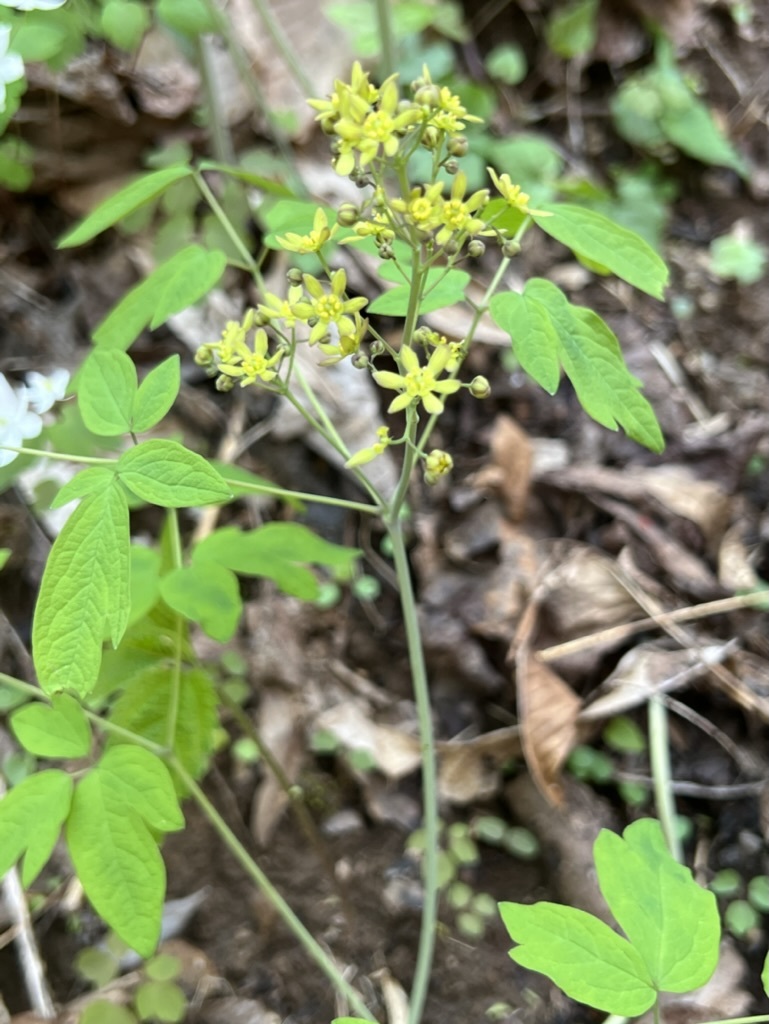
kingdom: Plantae
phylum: Tracheophyta
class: Magnoliopsida
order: Ranunculales
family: Berberidaceae
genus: Caulophyllum
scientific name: Caulophyllum thalictroides
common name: Blue cohosh
